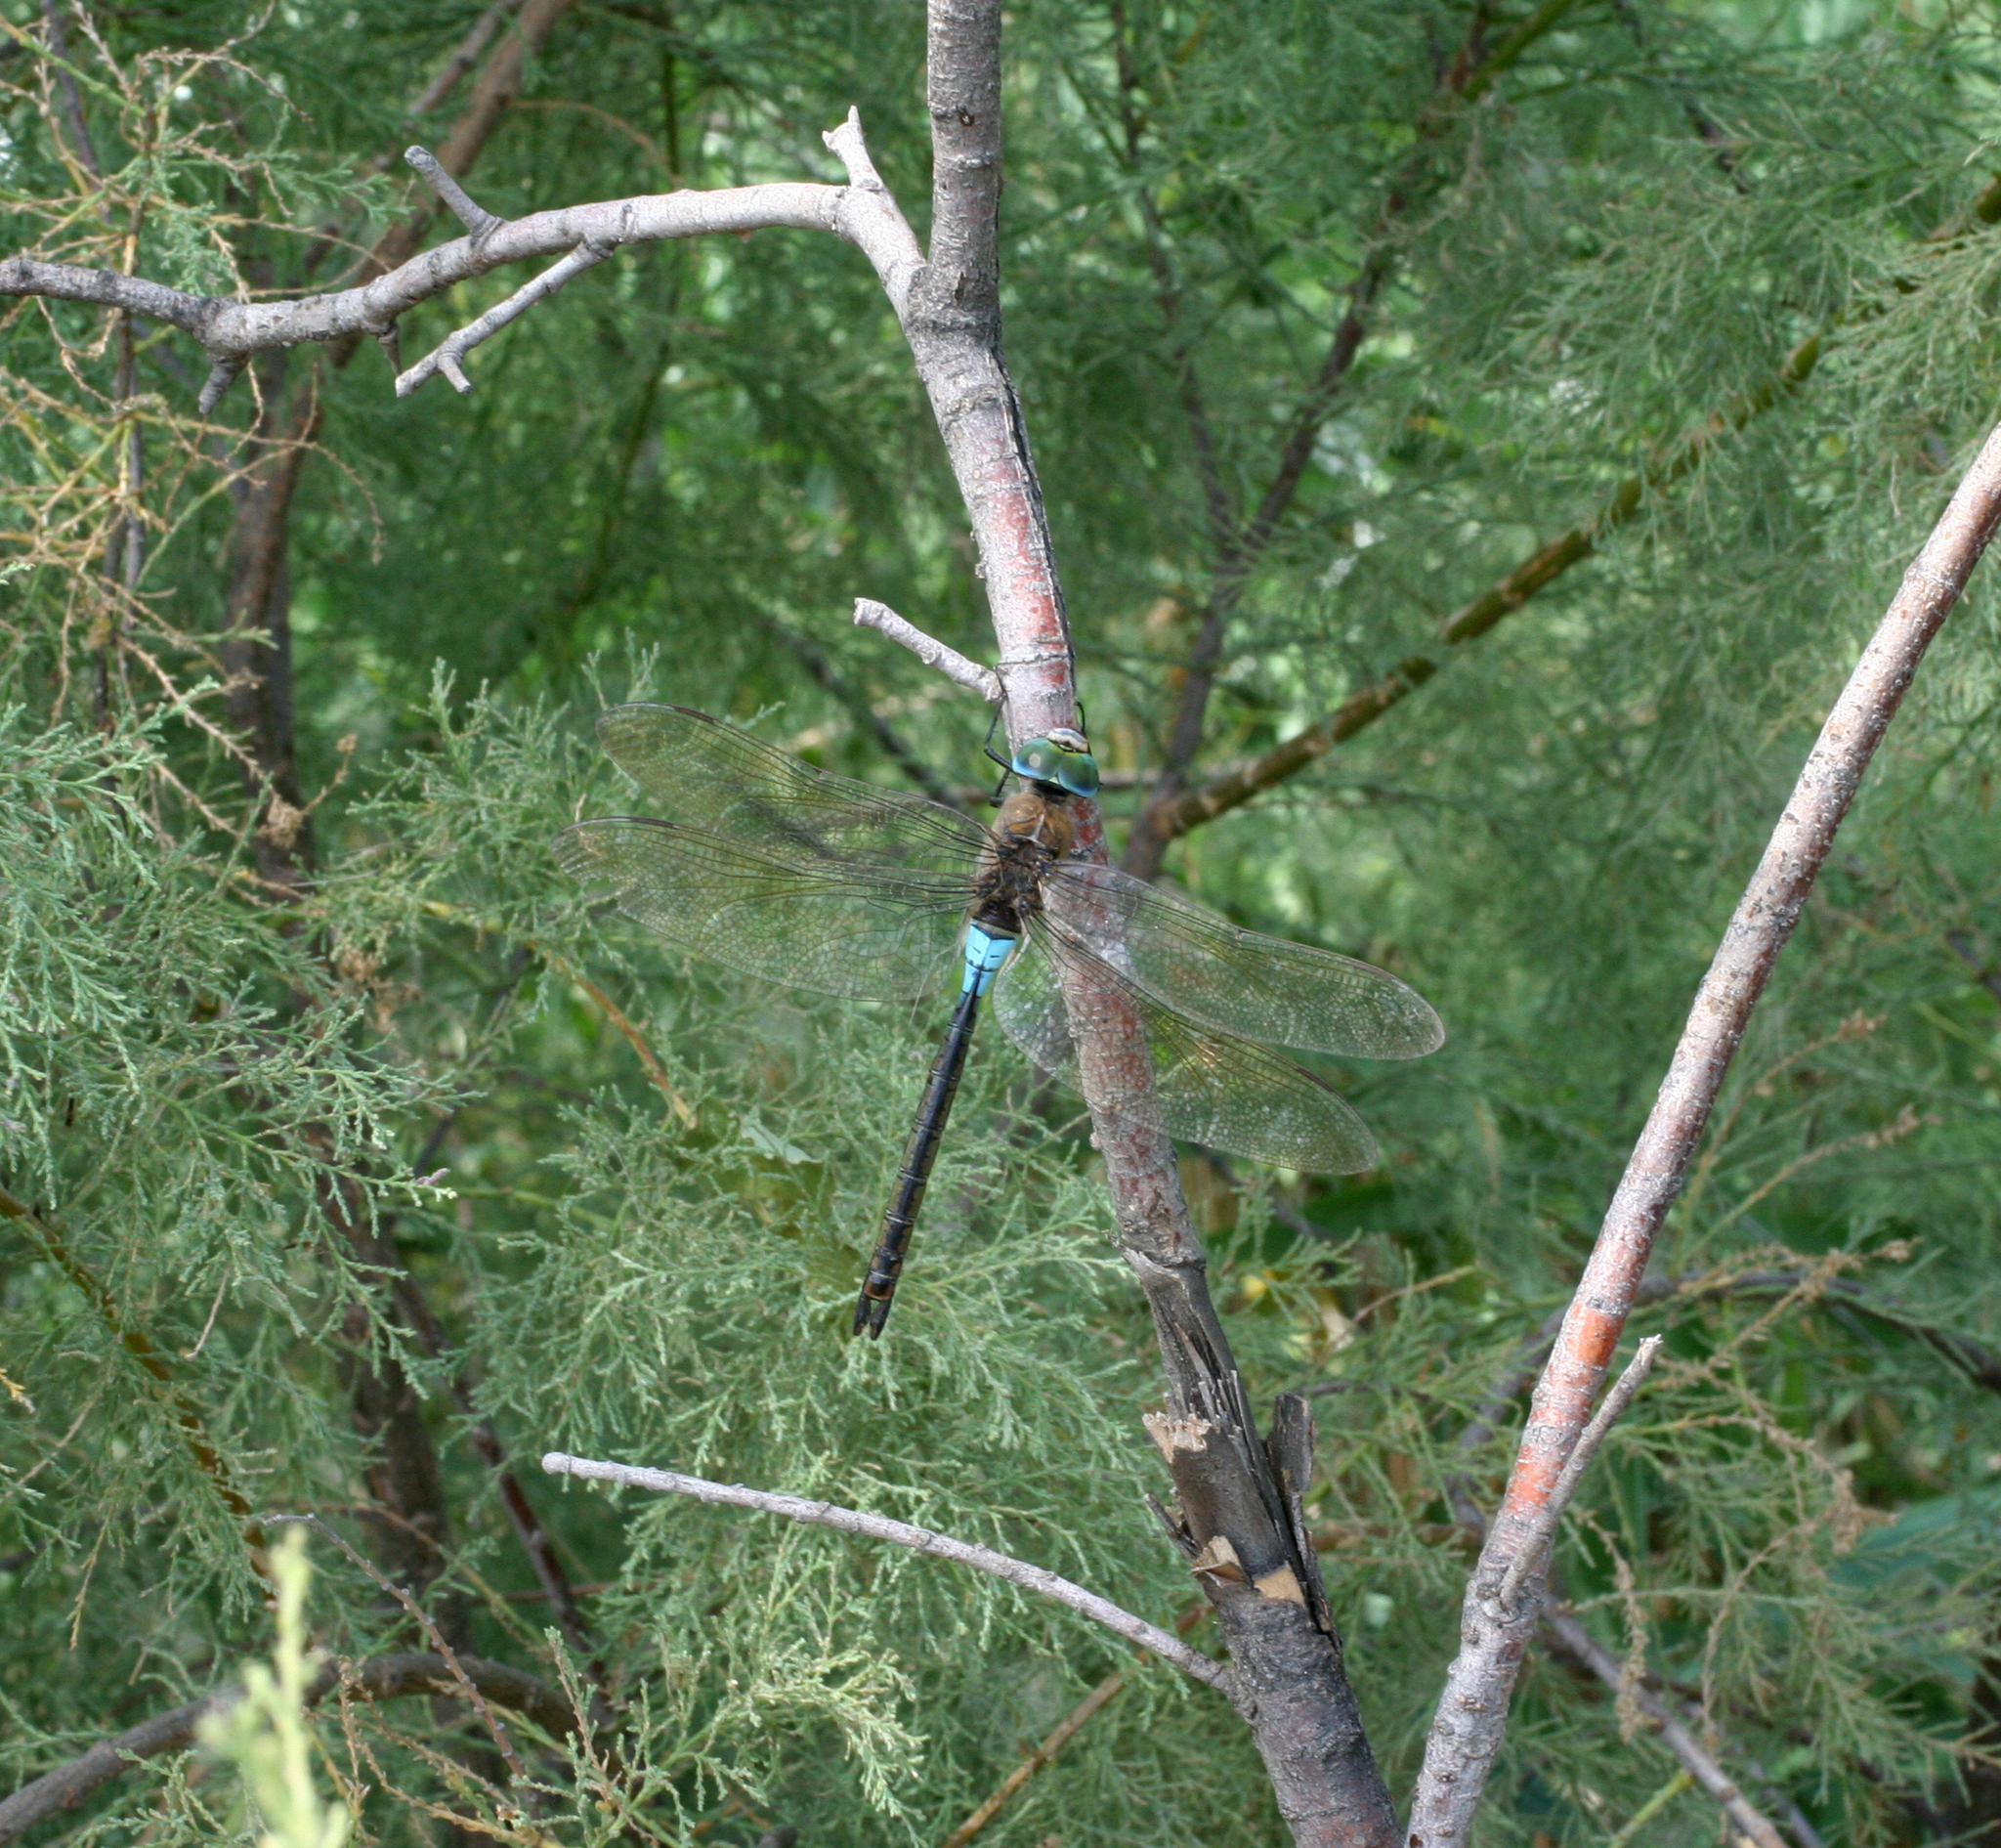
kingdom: Animalia
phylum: Arthropoda
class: Insecta
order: Odonata
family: Aeshnidae
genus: Anax
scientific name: Anax parthenope
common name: Lesser emperor
